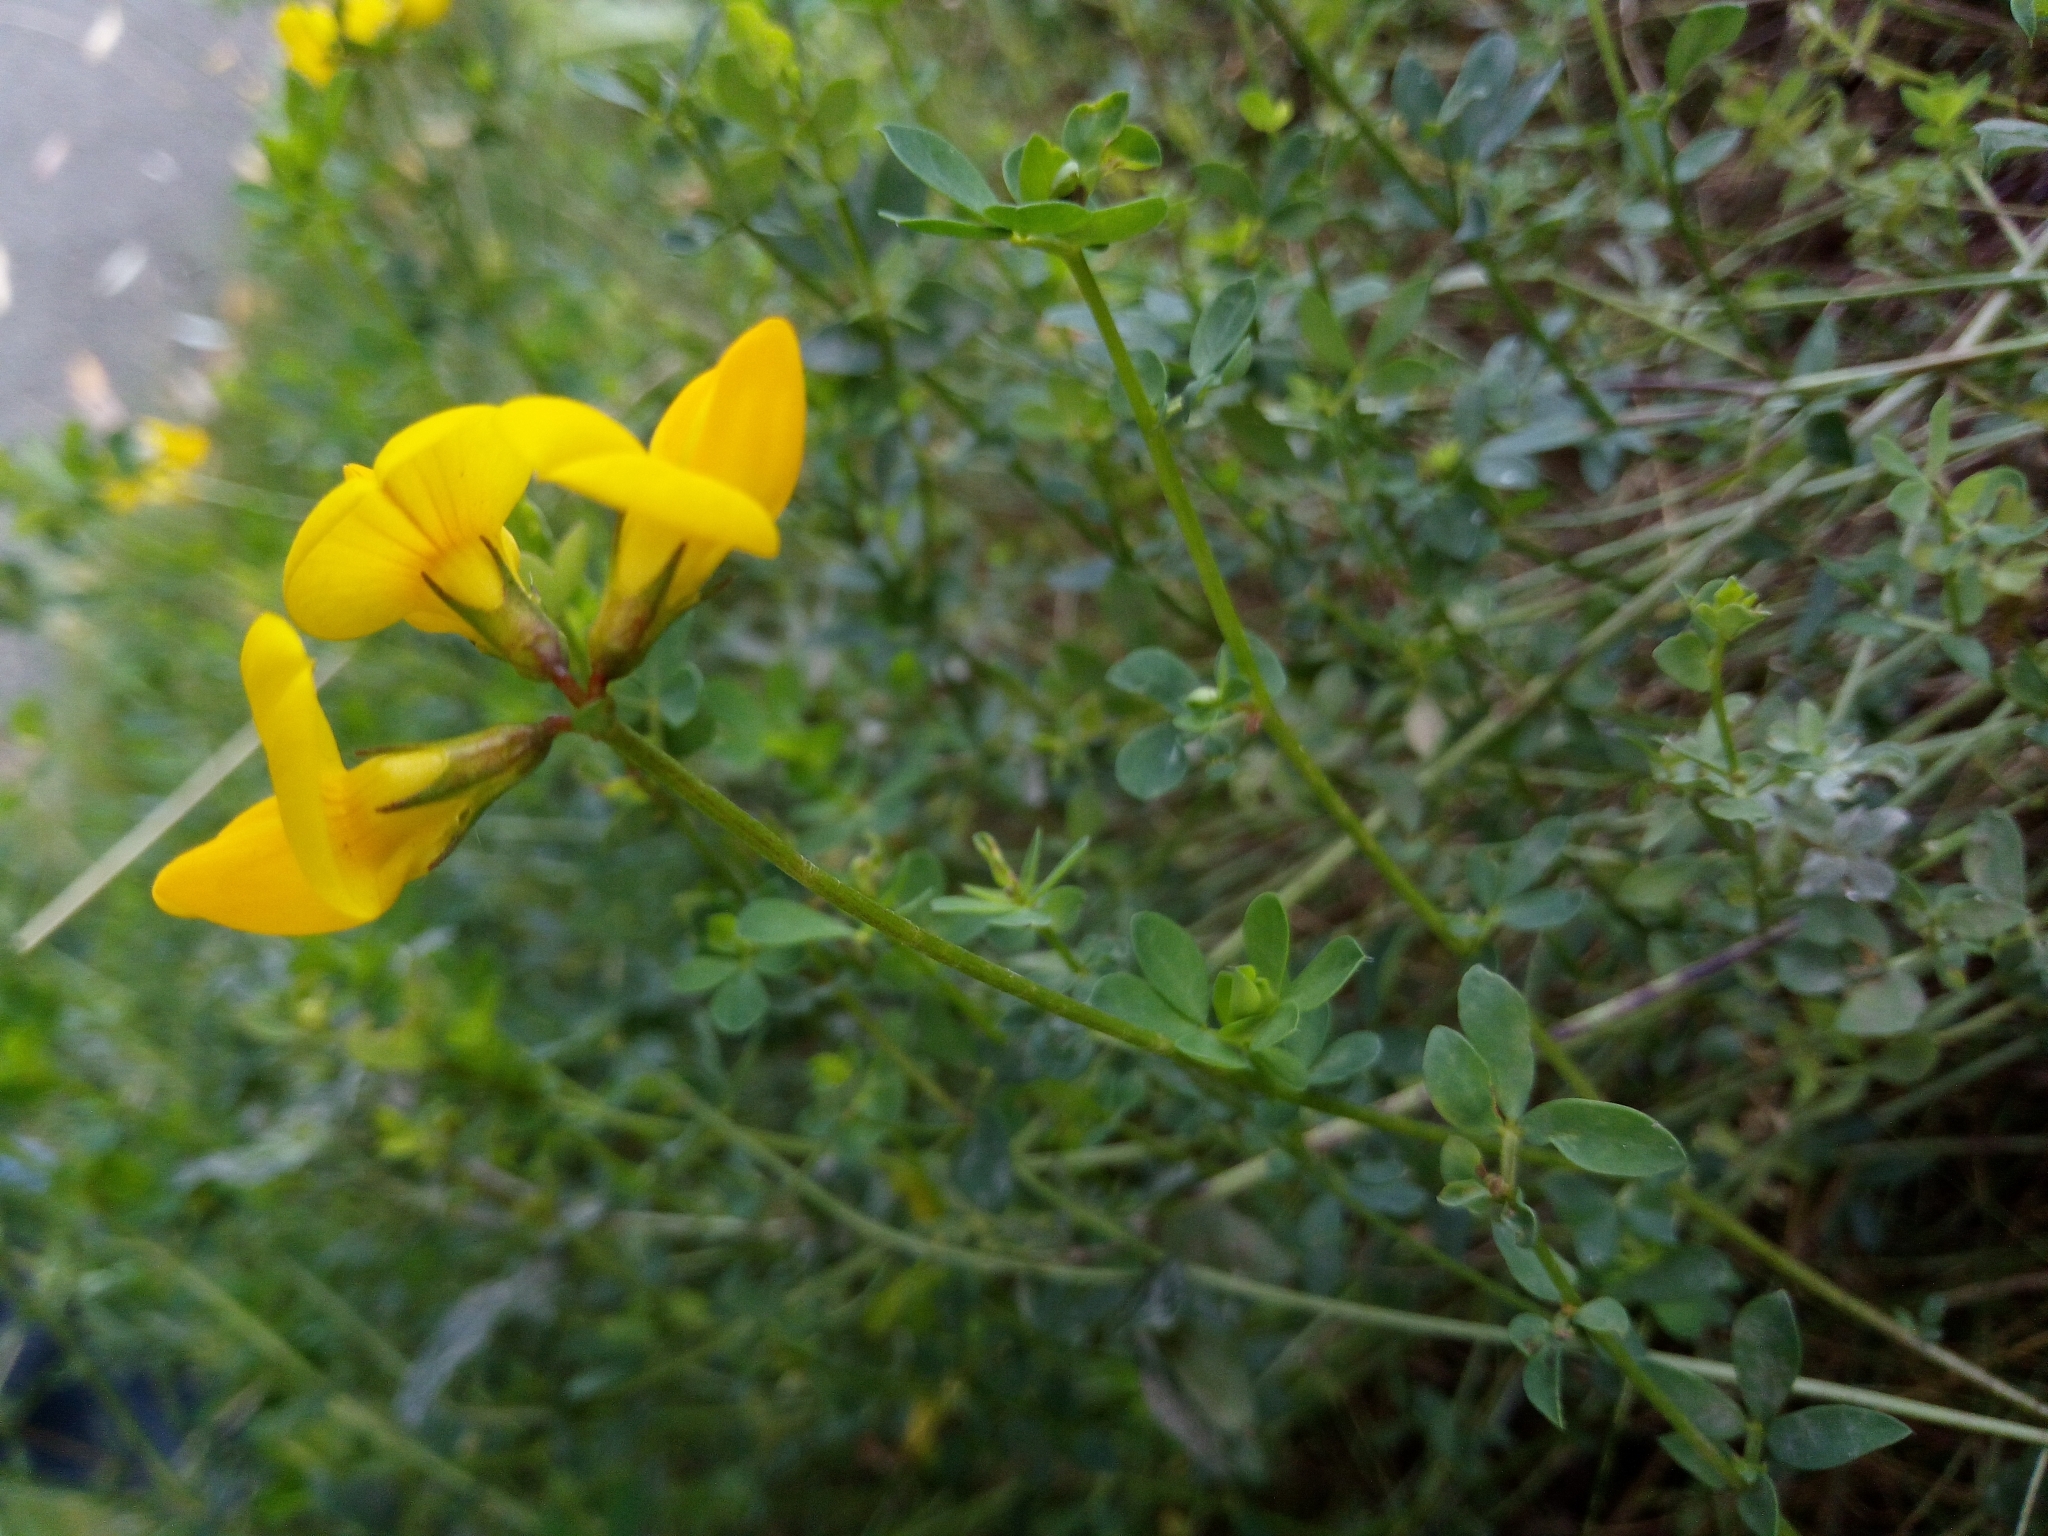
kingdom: Plantae
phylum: Tracheophyta
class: Magnoliopsida
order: Fabales
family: Fabaceae
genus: Lotus
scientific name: Lotus corniculatus
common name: Common bird's-foot-trefoil
